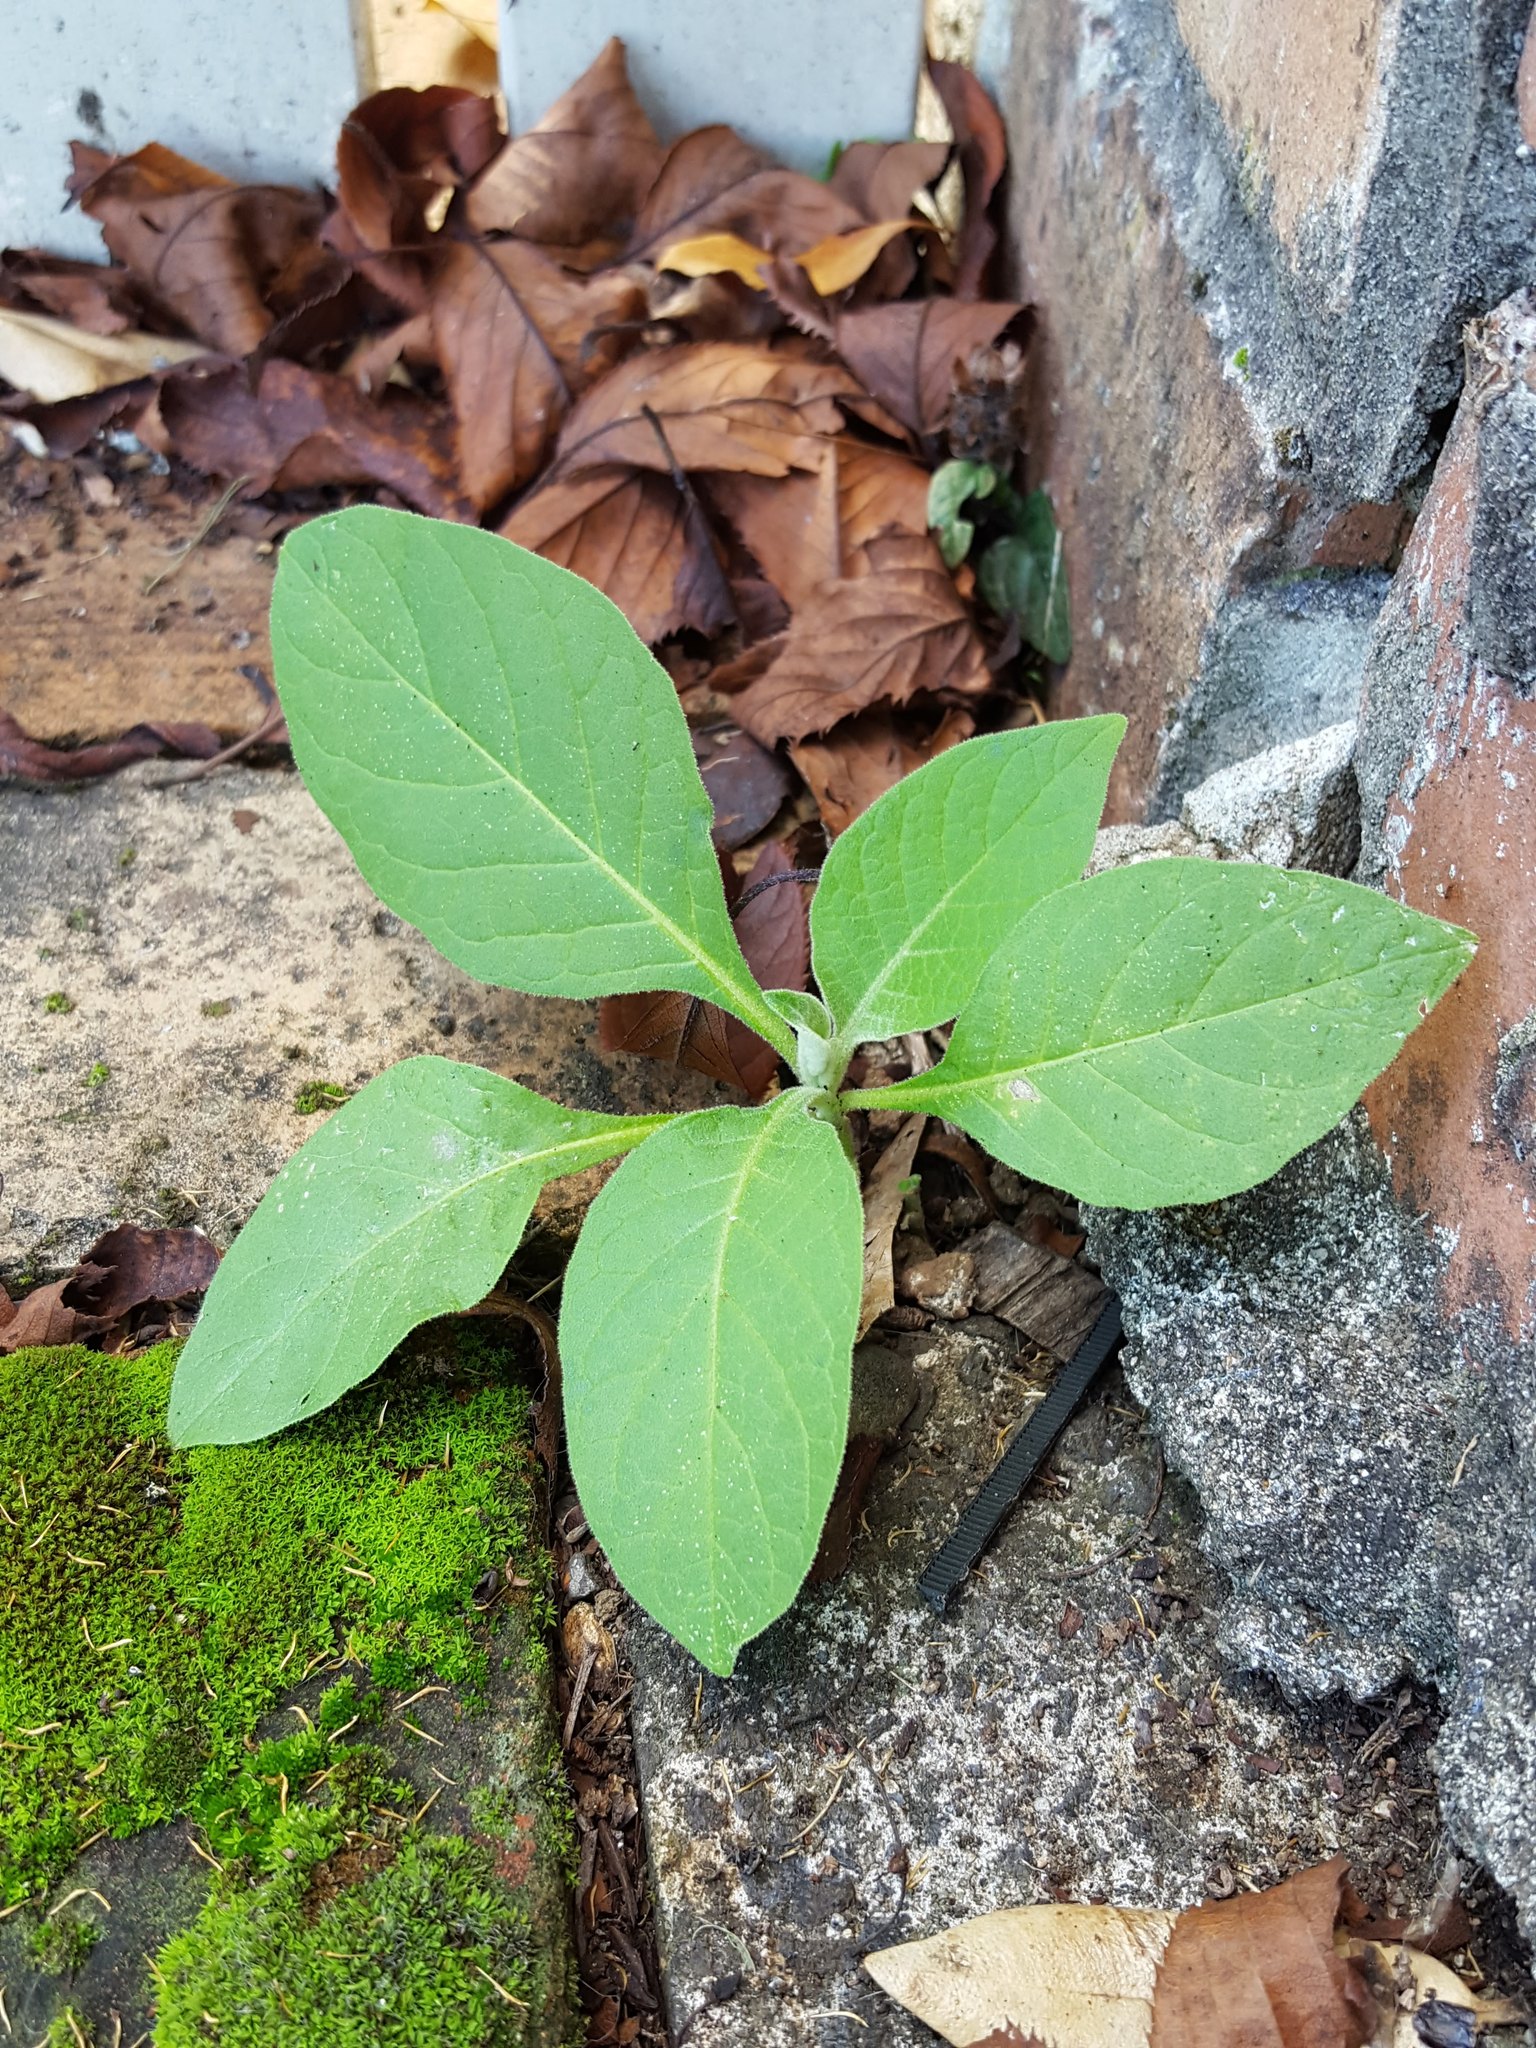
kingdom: Plantae
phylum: Tracheophyta
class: Magnoliopsida
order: Solanales
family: Solanaceae
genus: Solanum
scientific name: Solanum mauritianum
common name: Earleaf nightshade
